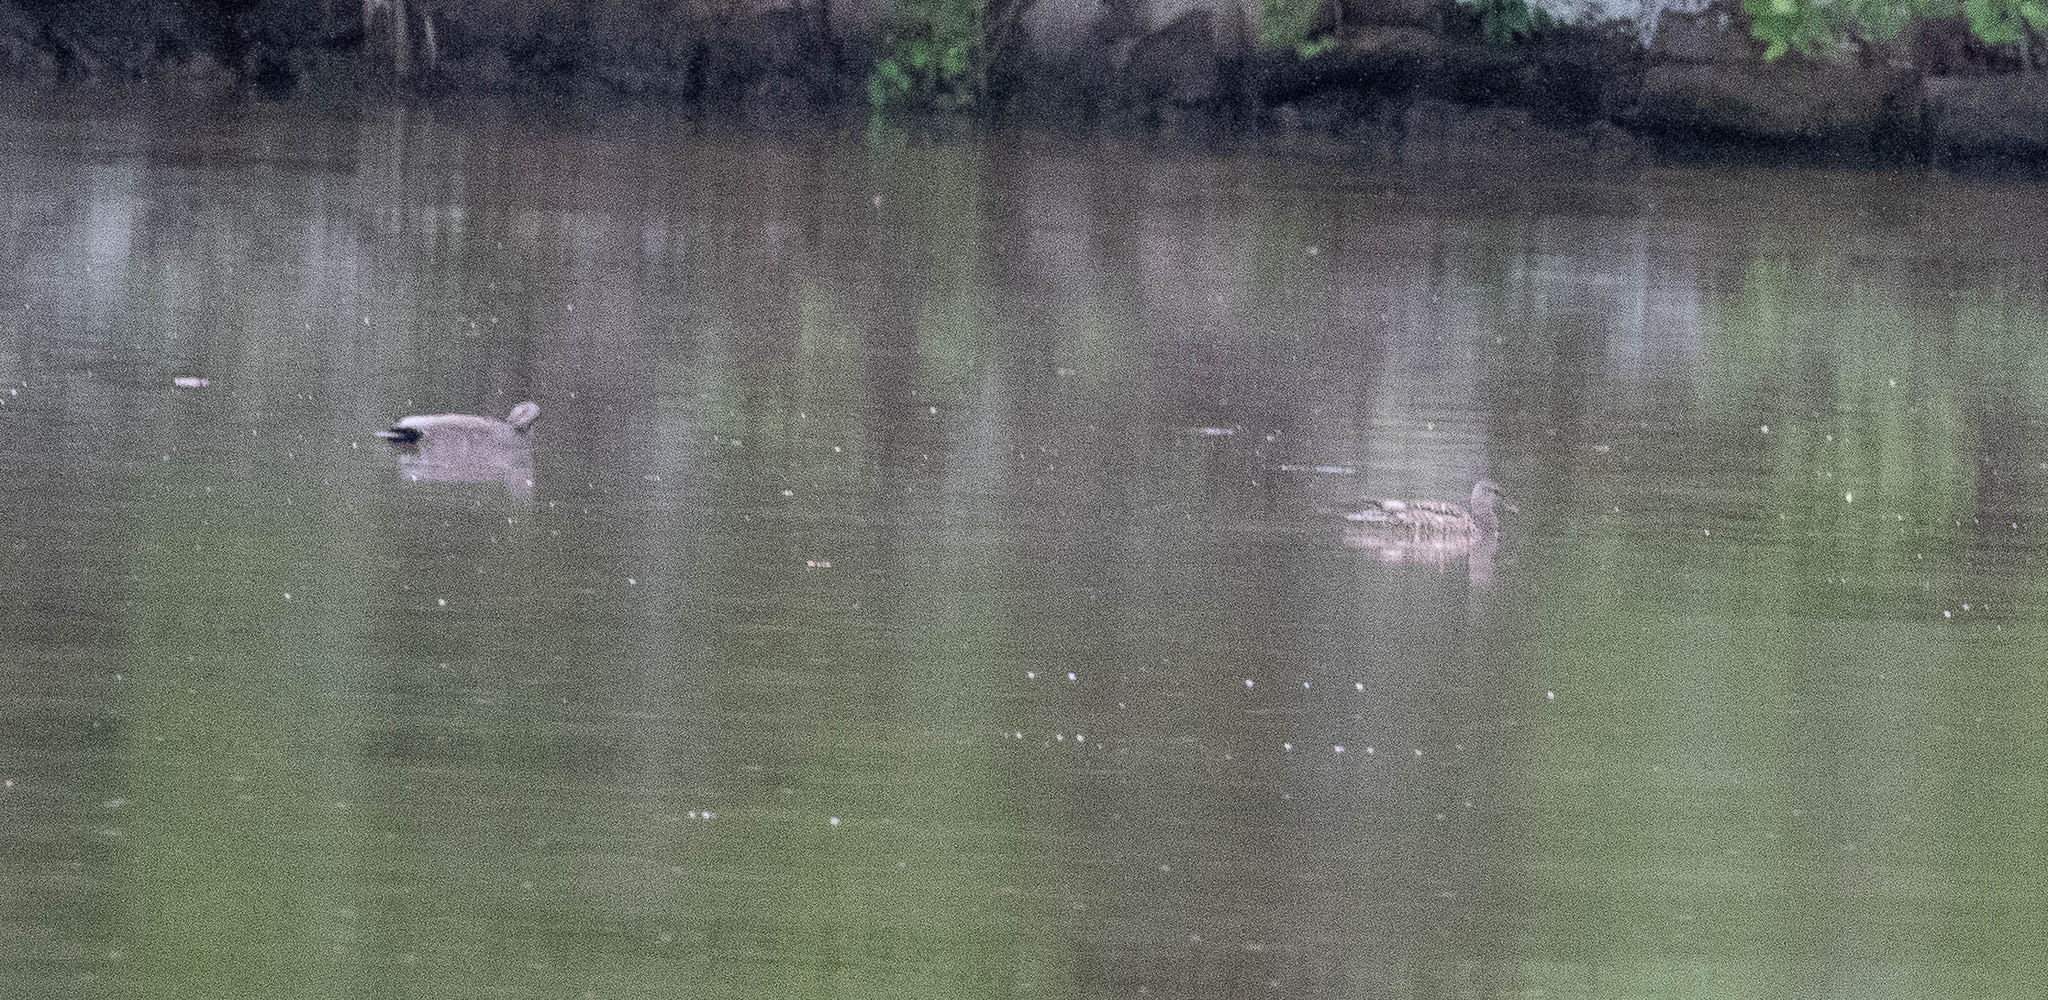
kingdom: Animalia
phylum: Chordata
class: Aves
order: Anseriformes
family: Anatidae
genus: Mareca
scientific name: Mareca strepera
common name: Gadwall
